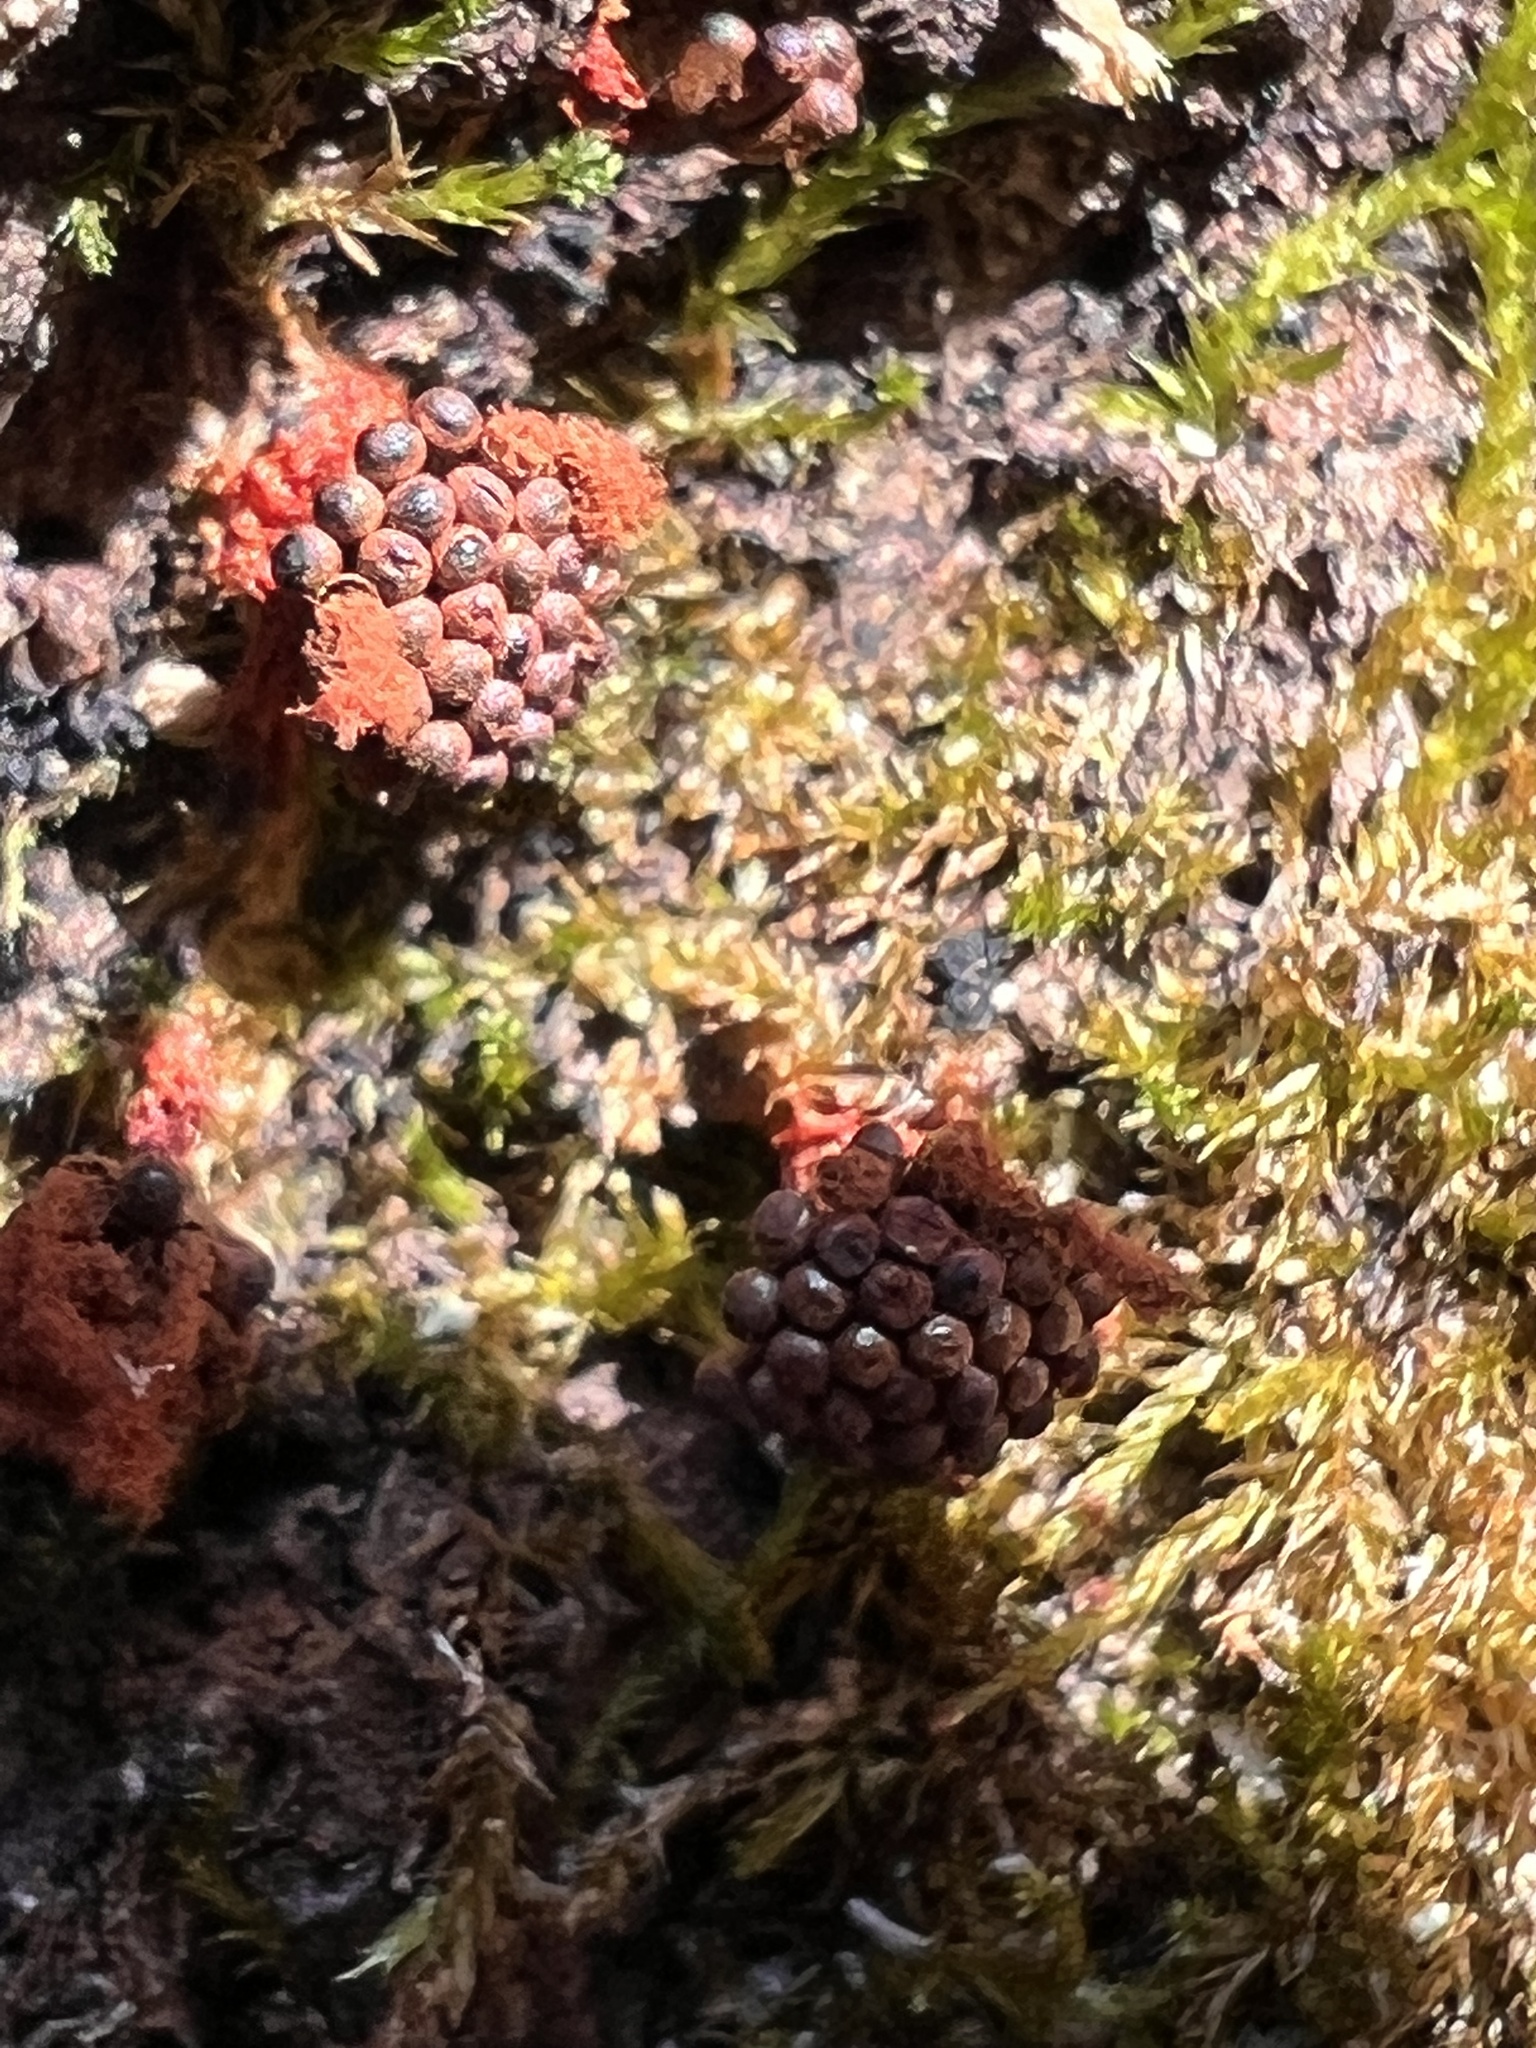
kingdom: Protozoa
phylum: Mycetozoa
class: Myxomycetes
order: Trichiales
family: Trichiaceae
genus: Metatrichia
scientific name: Metatrichia vesparia
